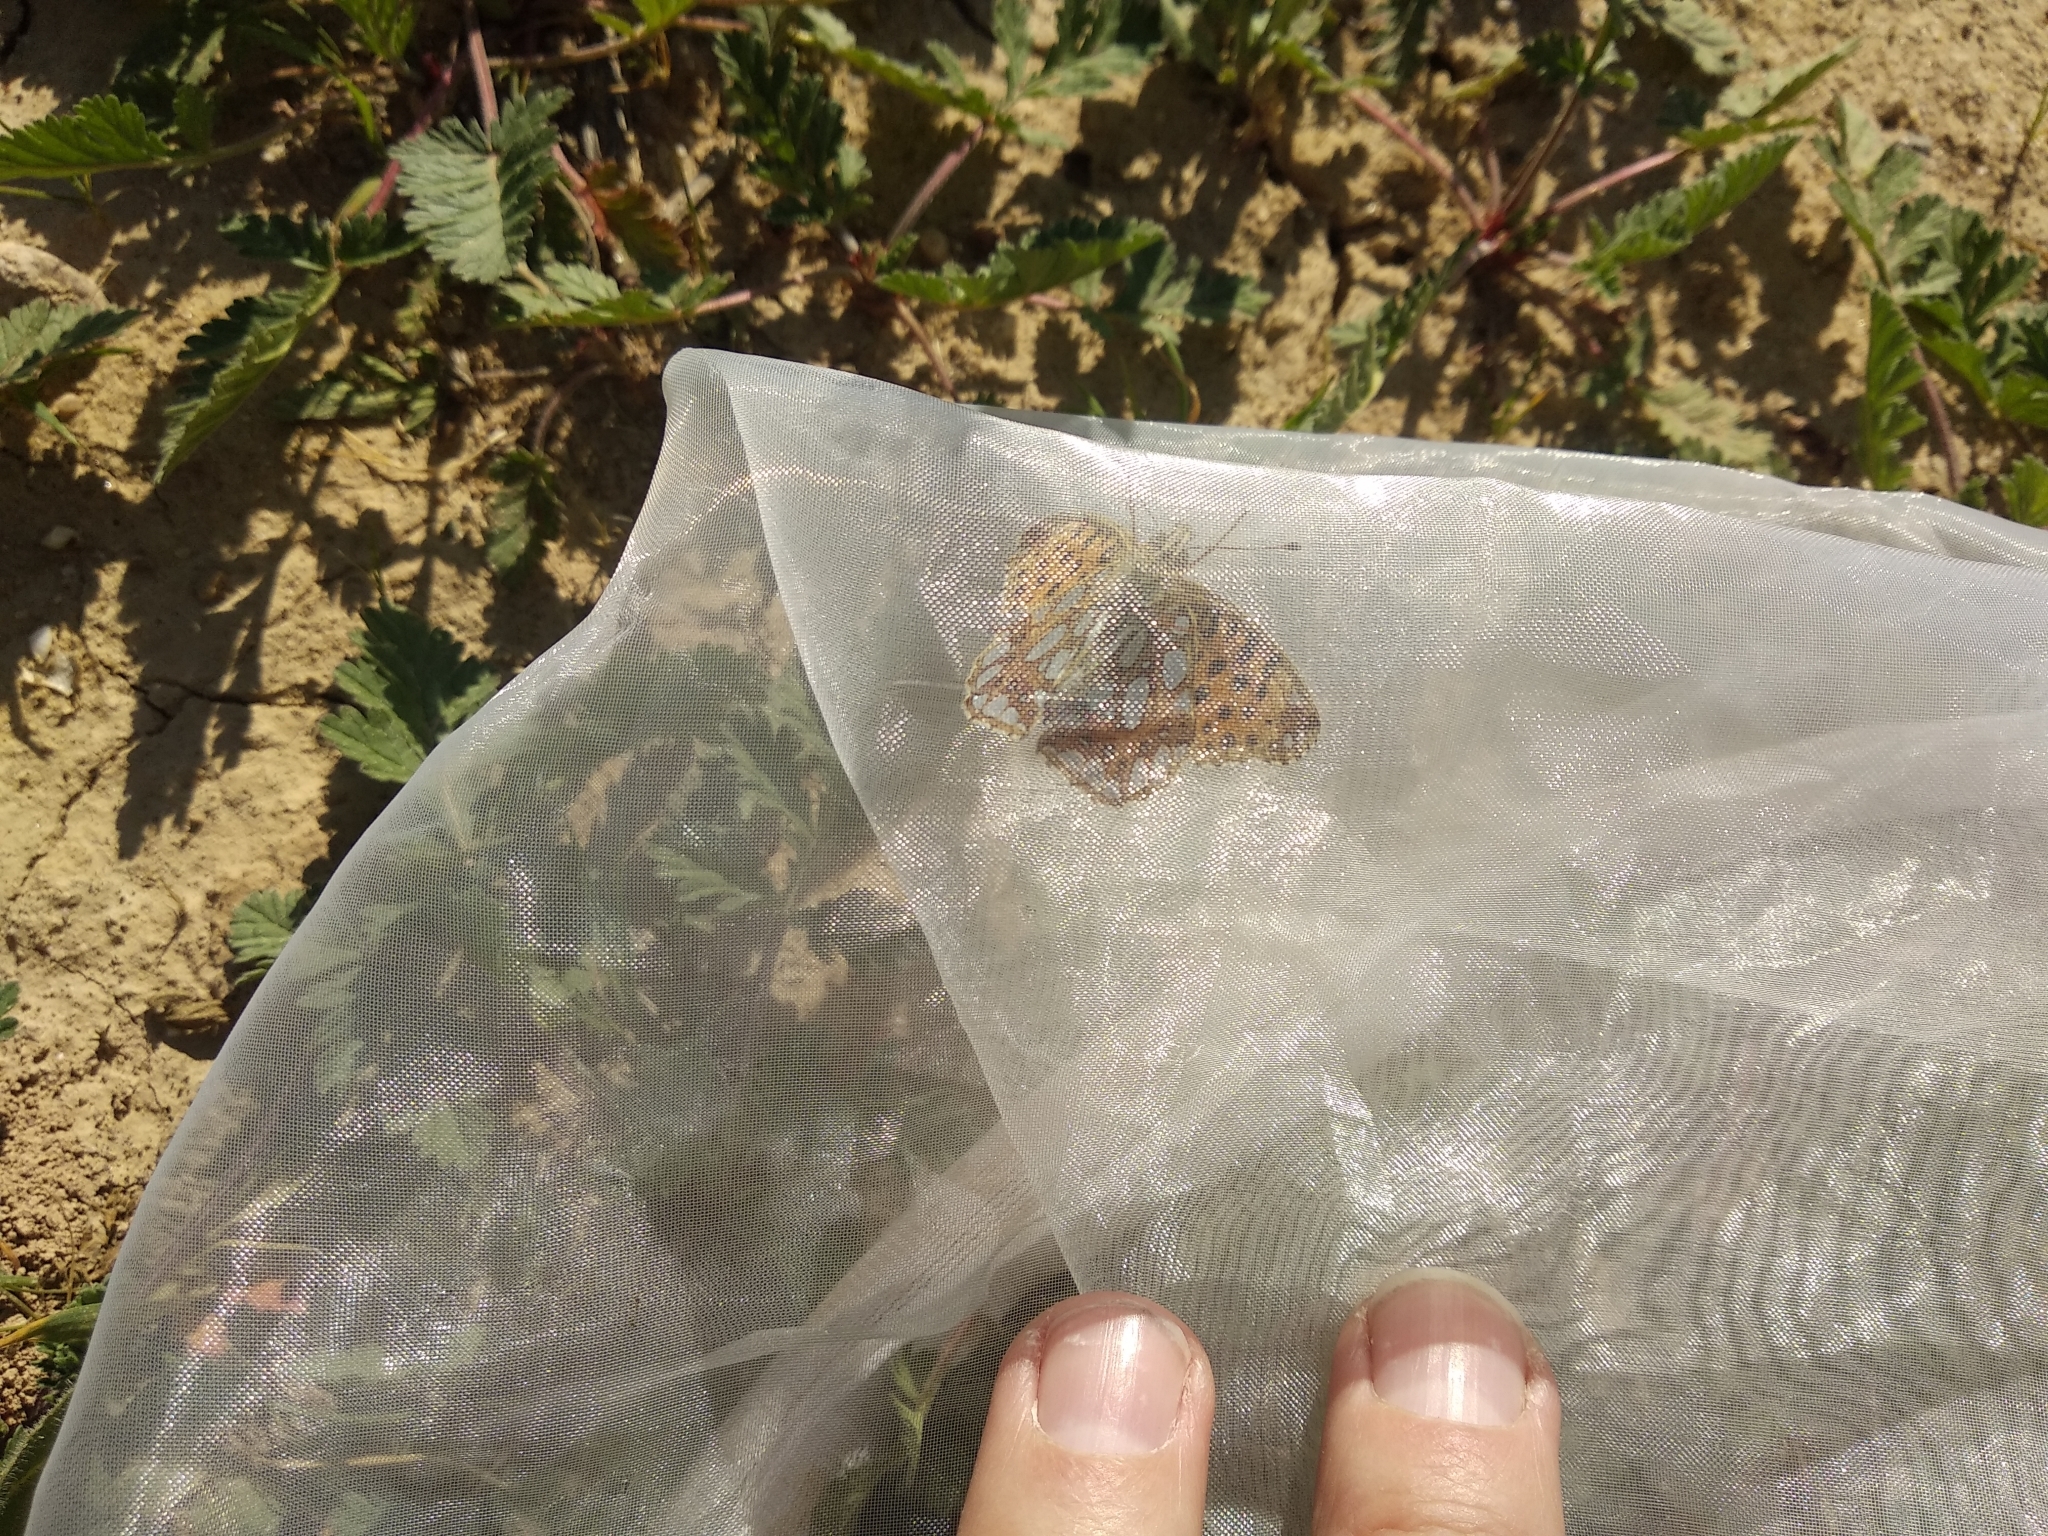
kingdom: Animalia
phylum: Arthropoda
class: Insecta
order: Lepidoptera
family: Nymphalidae
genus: Issoria
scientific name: Issoria lathonia
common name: Queen of spain fritillary
